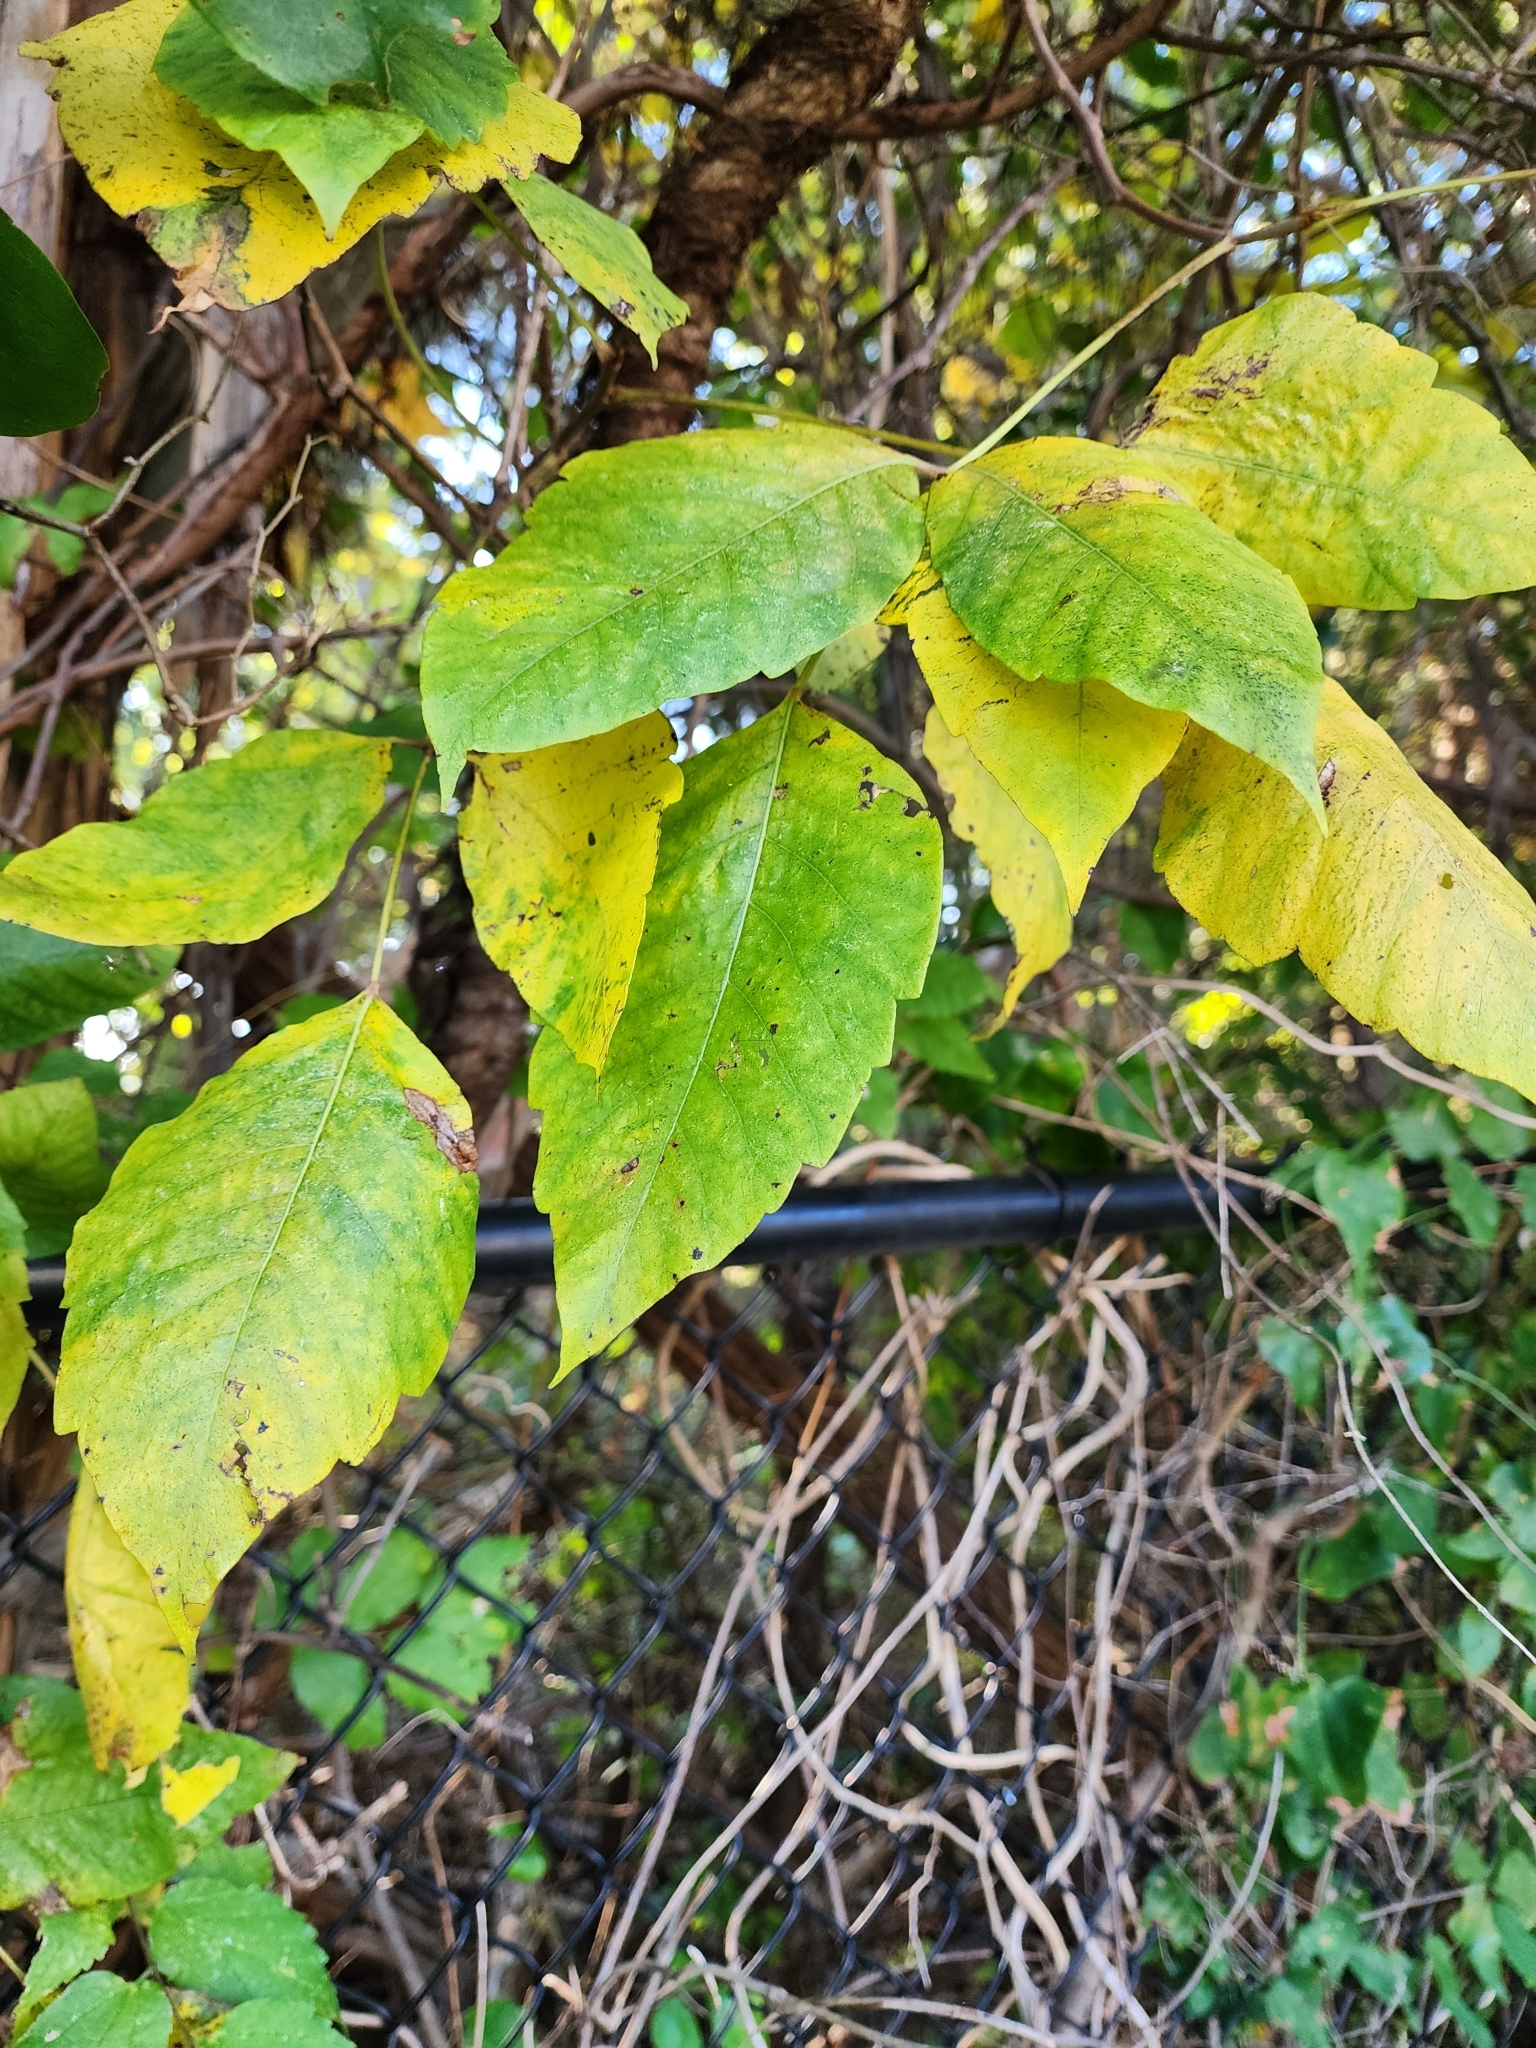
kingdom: Plantae
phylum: Tracheophyta
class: Magnoliopsida
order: Sapindales
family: Anacardiaceae
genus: Toxicodendron
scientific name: Toxicodendron radicans
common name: Poison ivy
